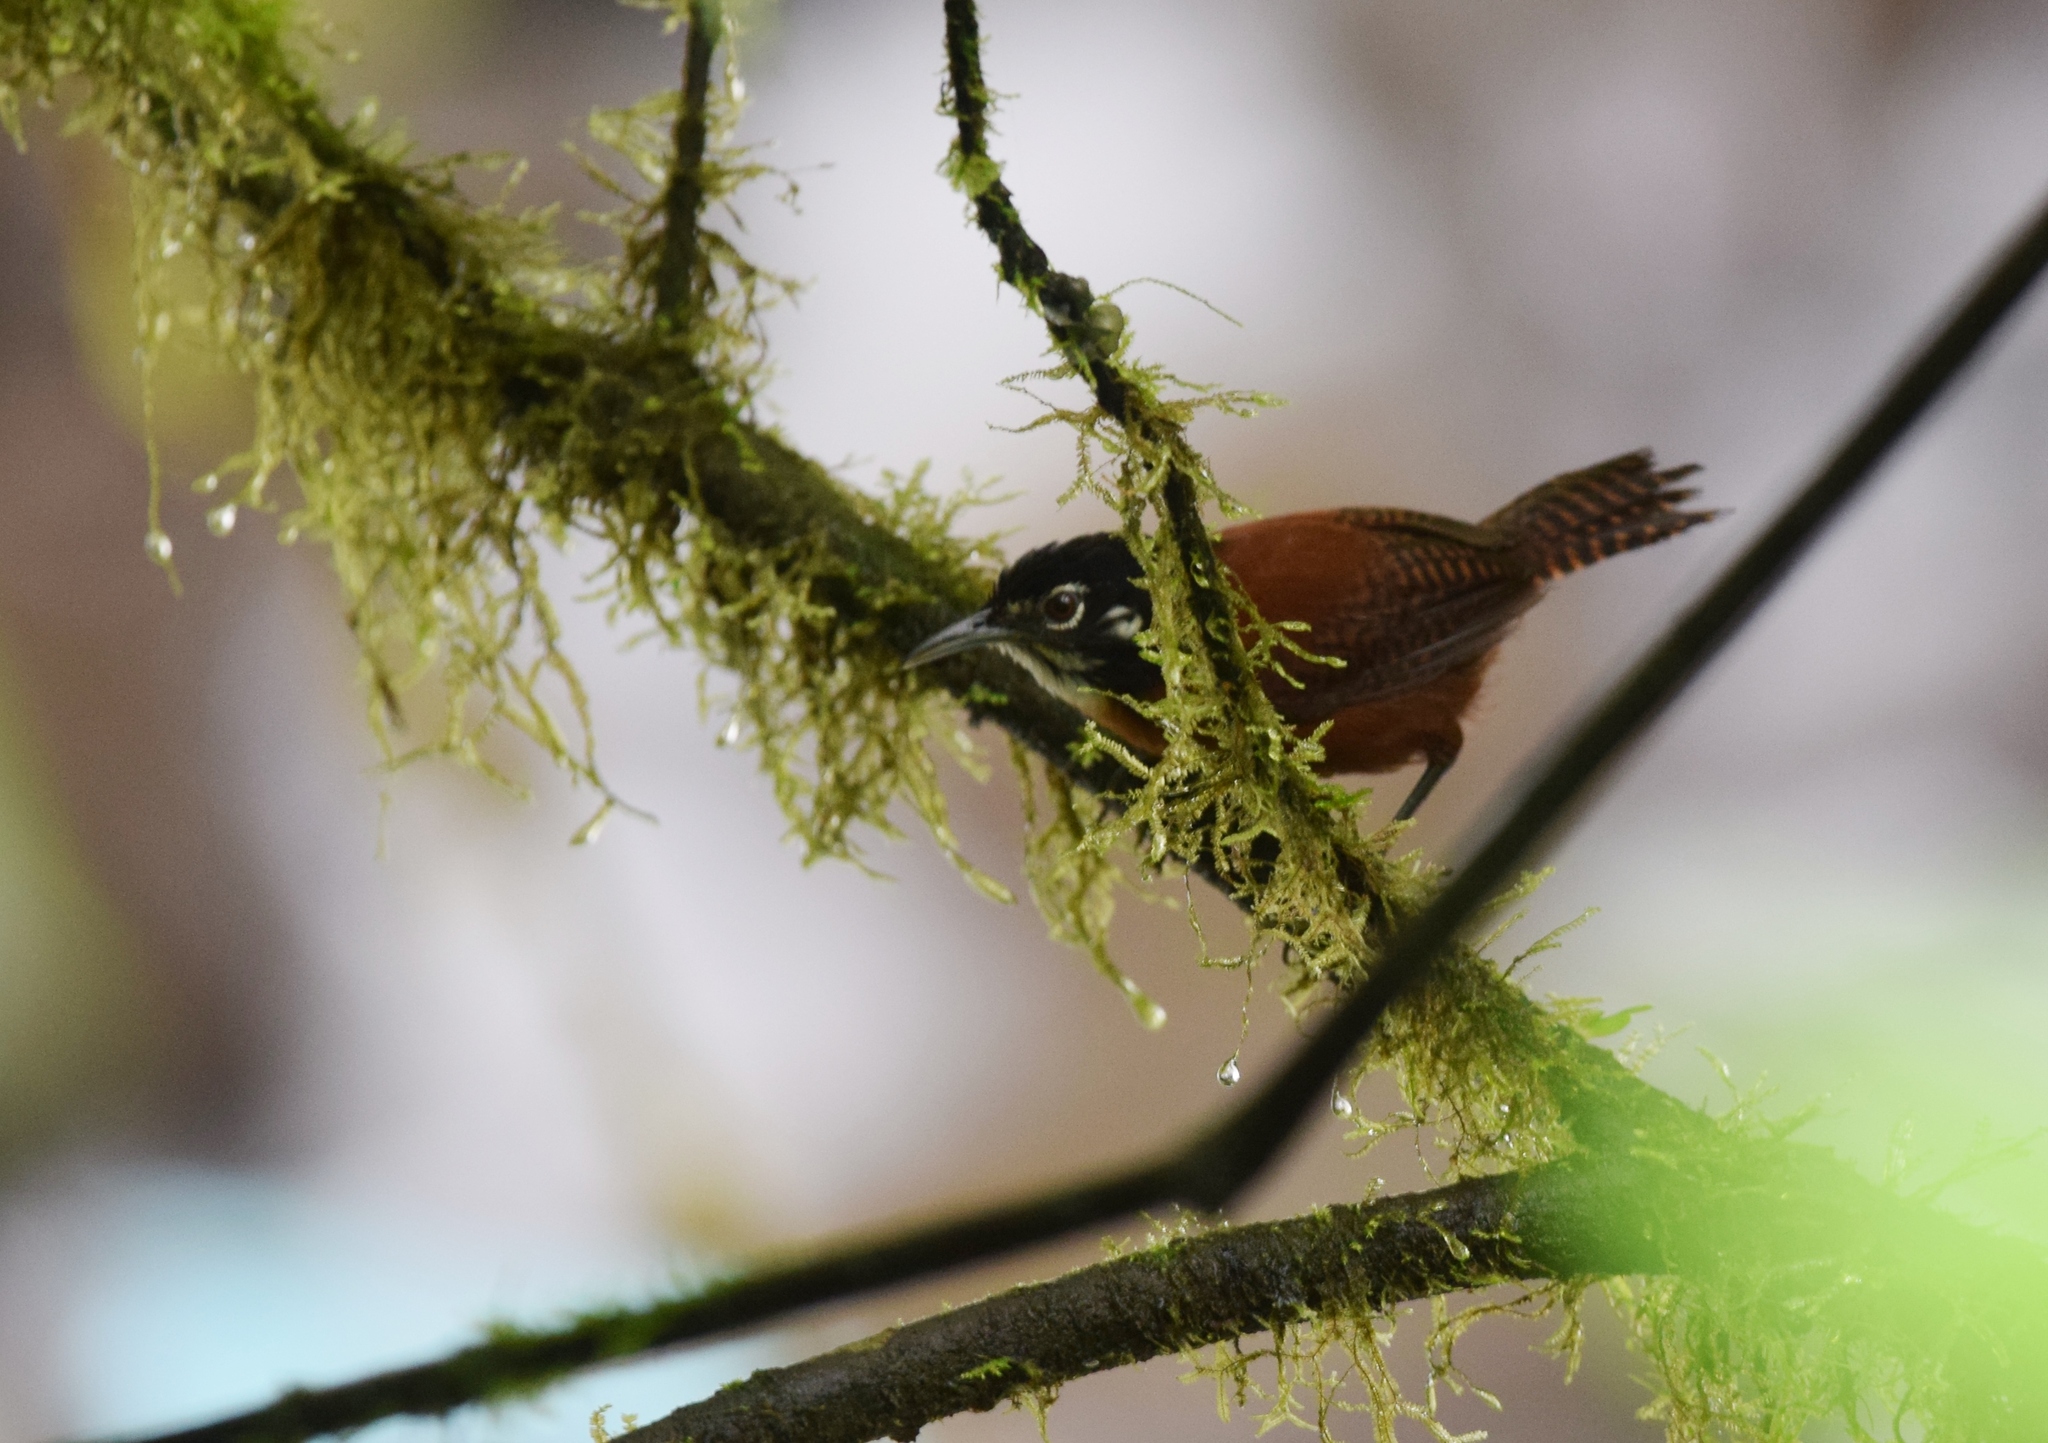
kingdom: Animalia
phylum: Chordata
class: Aves
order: Passeriformes
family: Troglodytidae
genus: Cantorchilus
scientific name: Cantorchilus nigricapillus
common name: Bay wren
